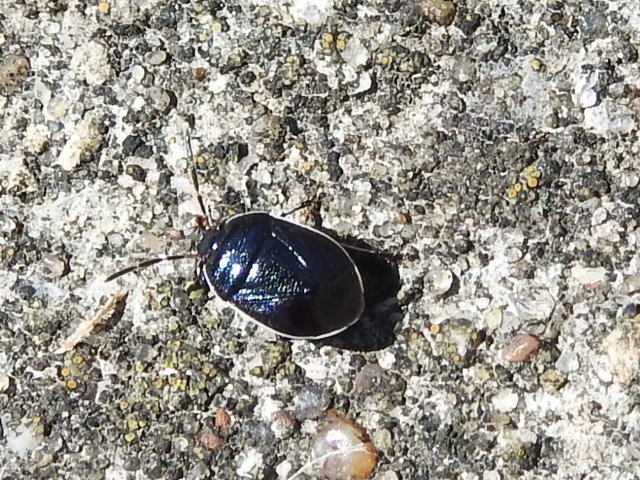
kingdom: Animalia
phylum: Arthropoda
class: Insecta
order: Hemiptera
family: Cydnidae
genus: Sehirus
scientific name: Sehirus cinctus
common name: White-margined burrower bug
